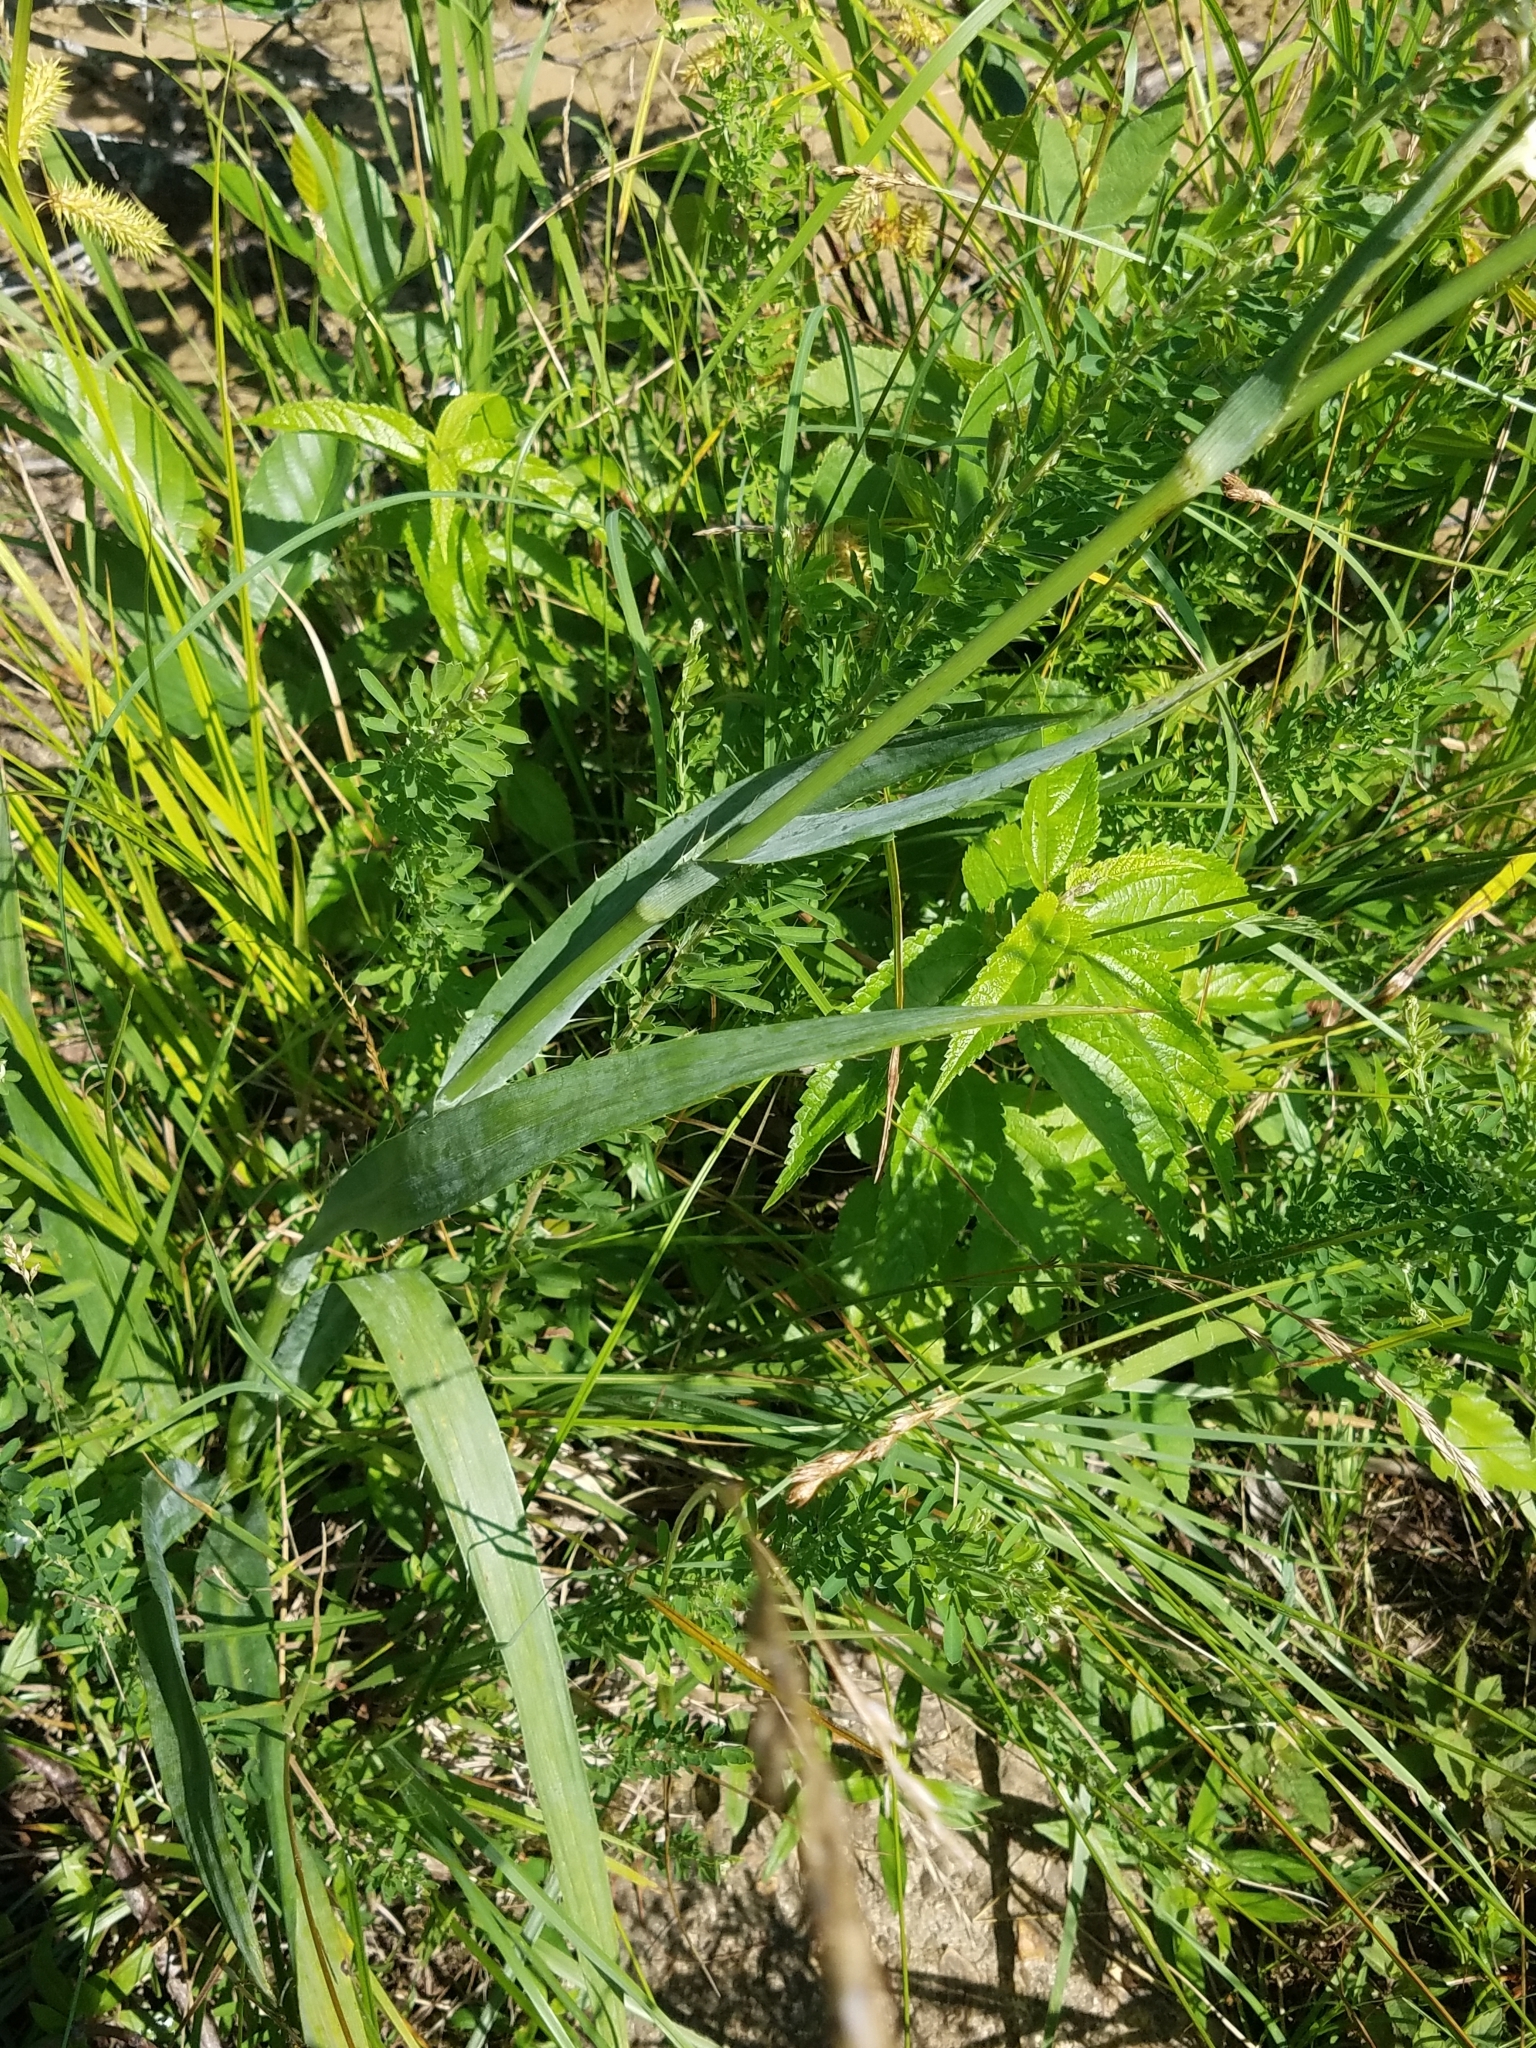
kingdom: Plantae
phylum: Tracheophyta
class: Magnoliopsida
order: Apiales
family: Apiaceae
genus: Eryngium
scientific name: Eryngium yuccifolium
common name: Button eryngo
